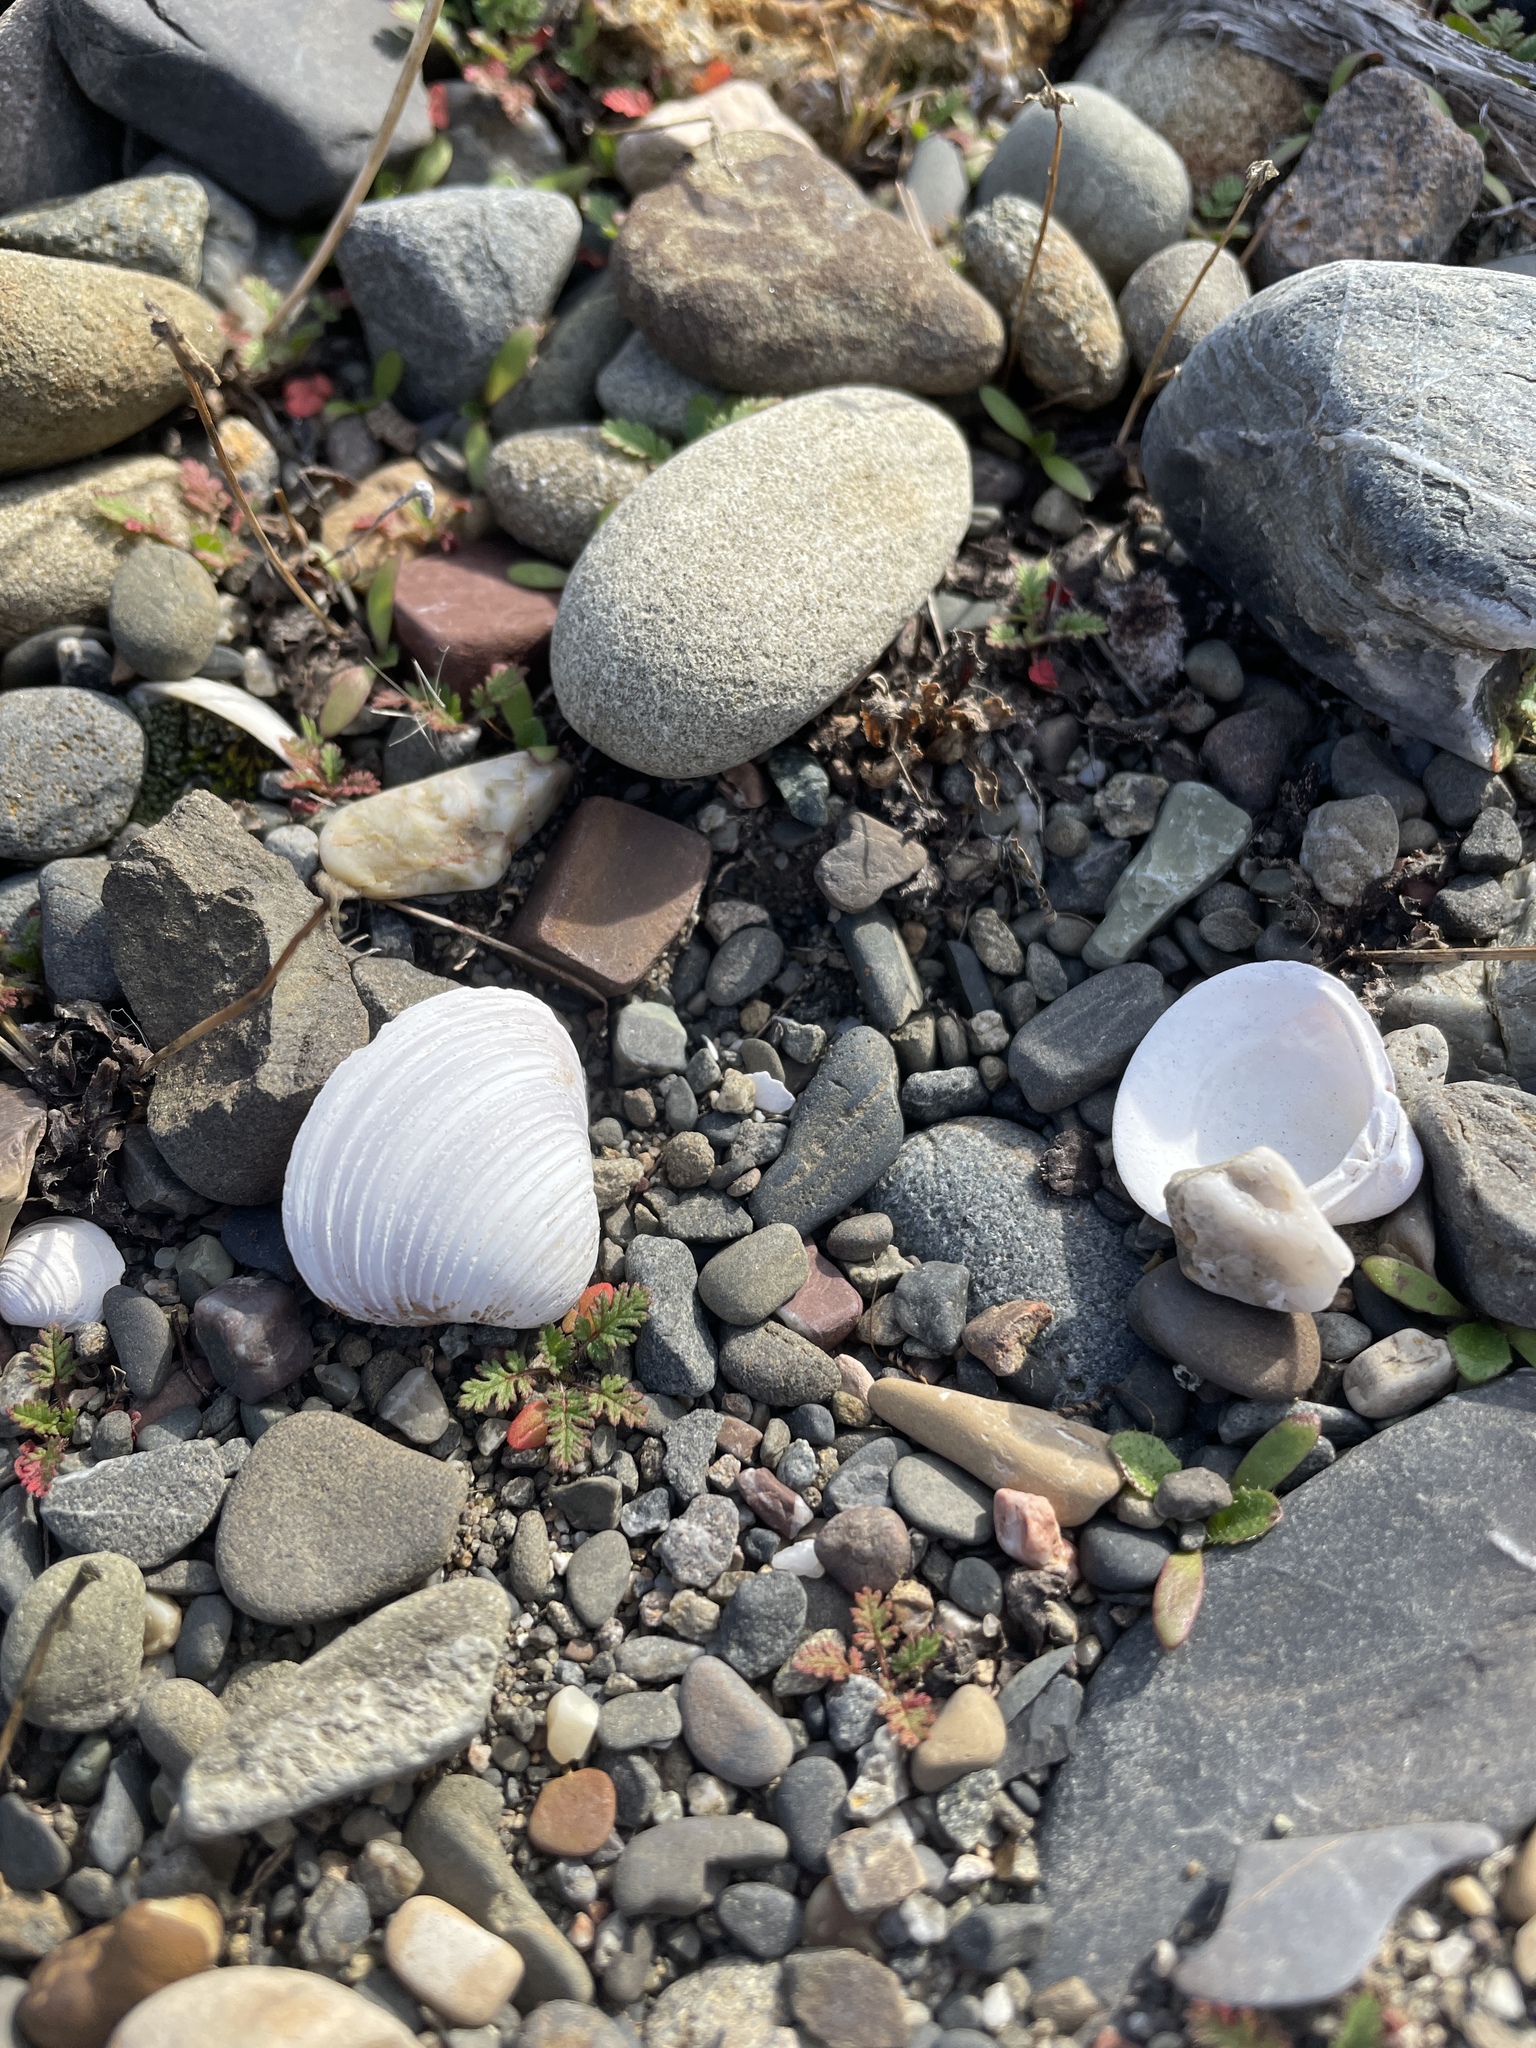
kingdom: Animalia
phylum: Mollusca
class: Bivalvia
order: Venerida
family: Cyrenidae
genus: Corbicula
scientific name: Corbicula fluminea
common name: Asian clam
